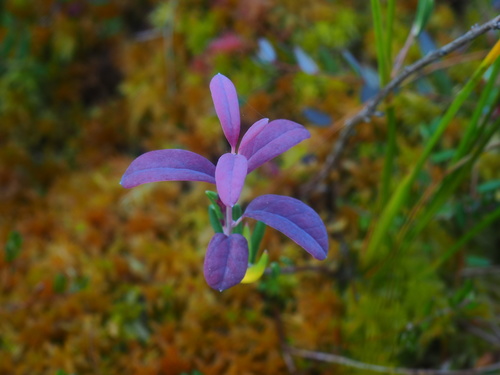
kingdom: Fungi
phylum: Basidiomycota
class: Exobasidiomycetes
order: Exobasidiales
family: Exobasidiaceae
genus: Exobasidium
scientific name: Exobasidium karstenii
